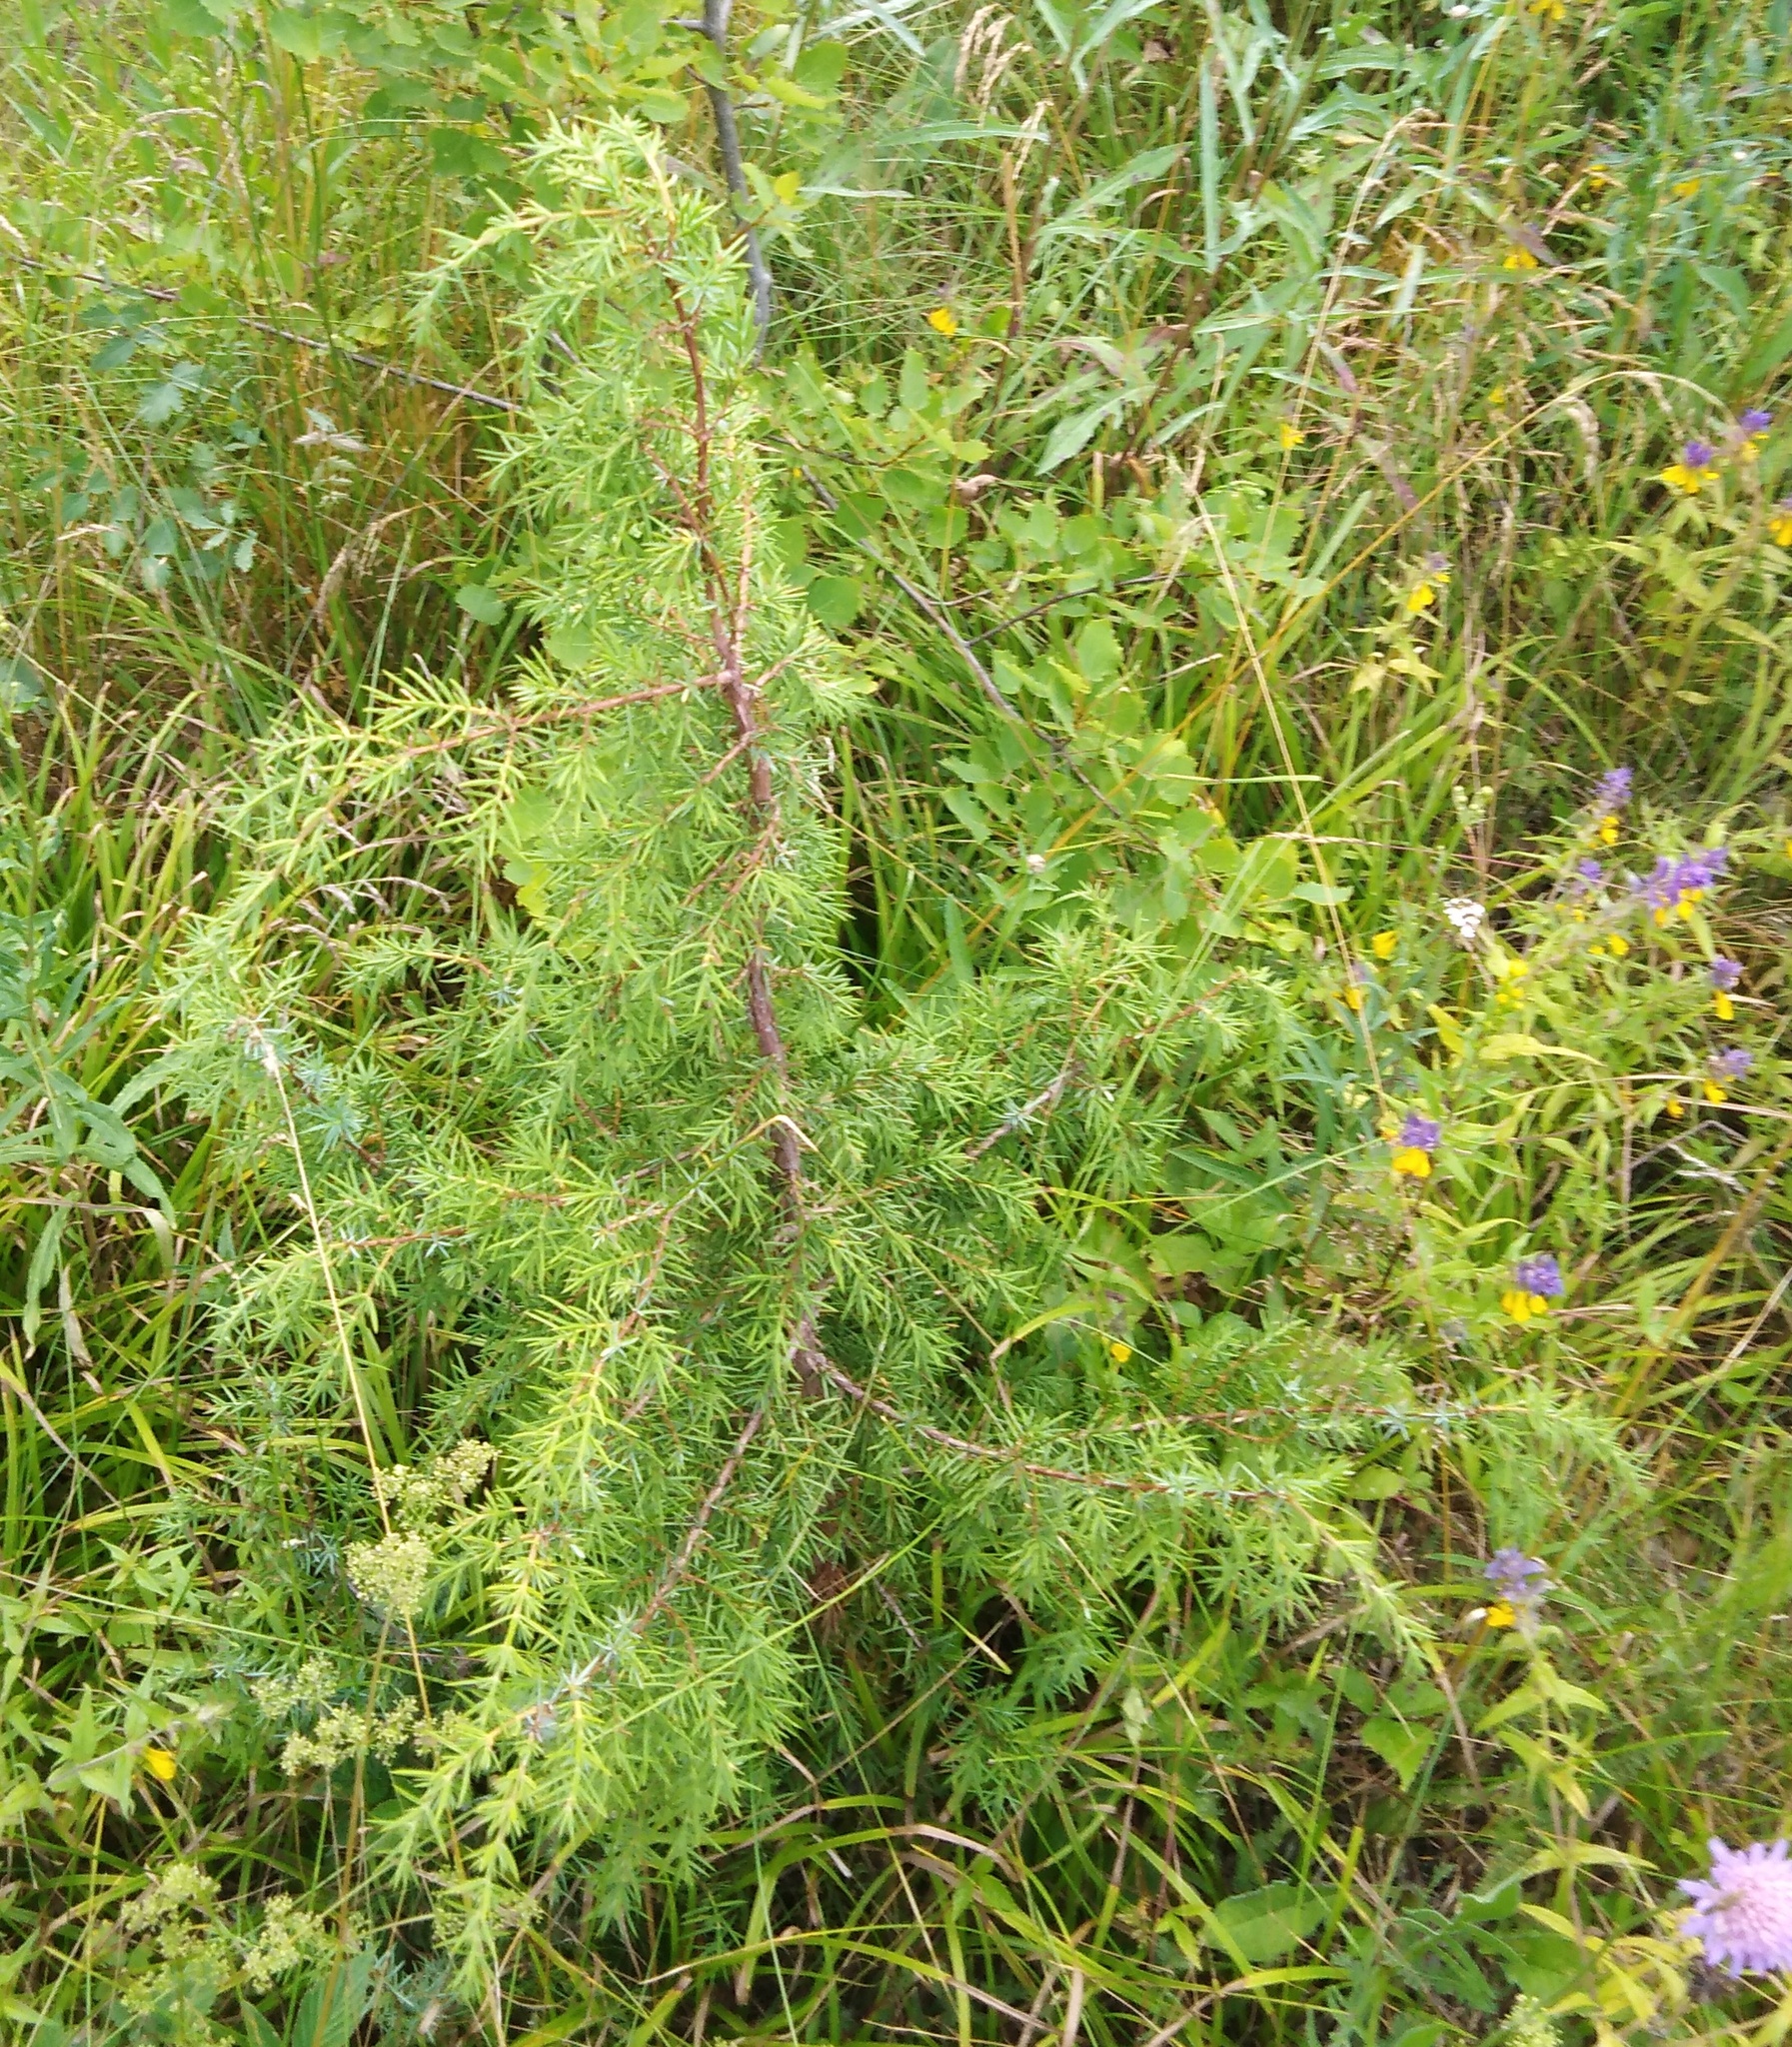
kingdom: Plantae
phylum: Tracheophyta
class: Pinopsida
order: Pinales
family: Cupressaceae
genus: Juniperus
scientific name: Juniperus communis
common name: Common juniper
